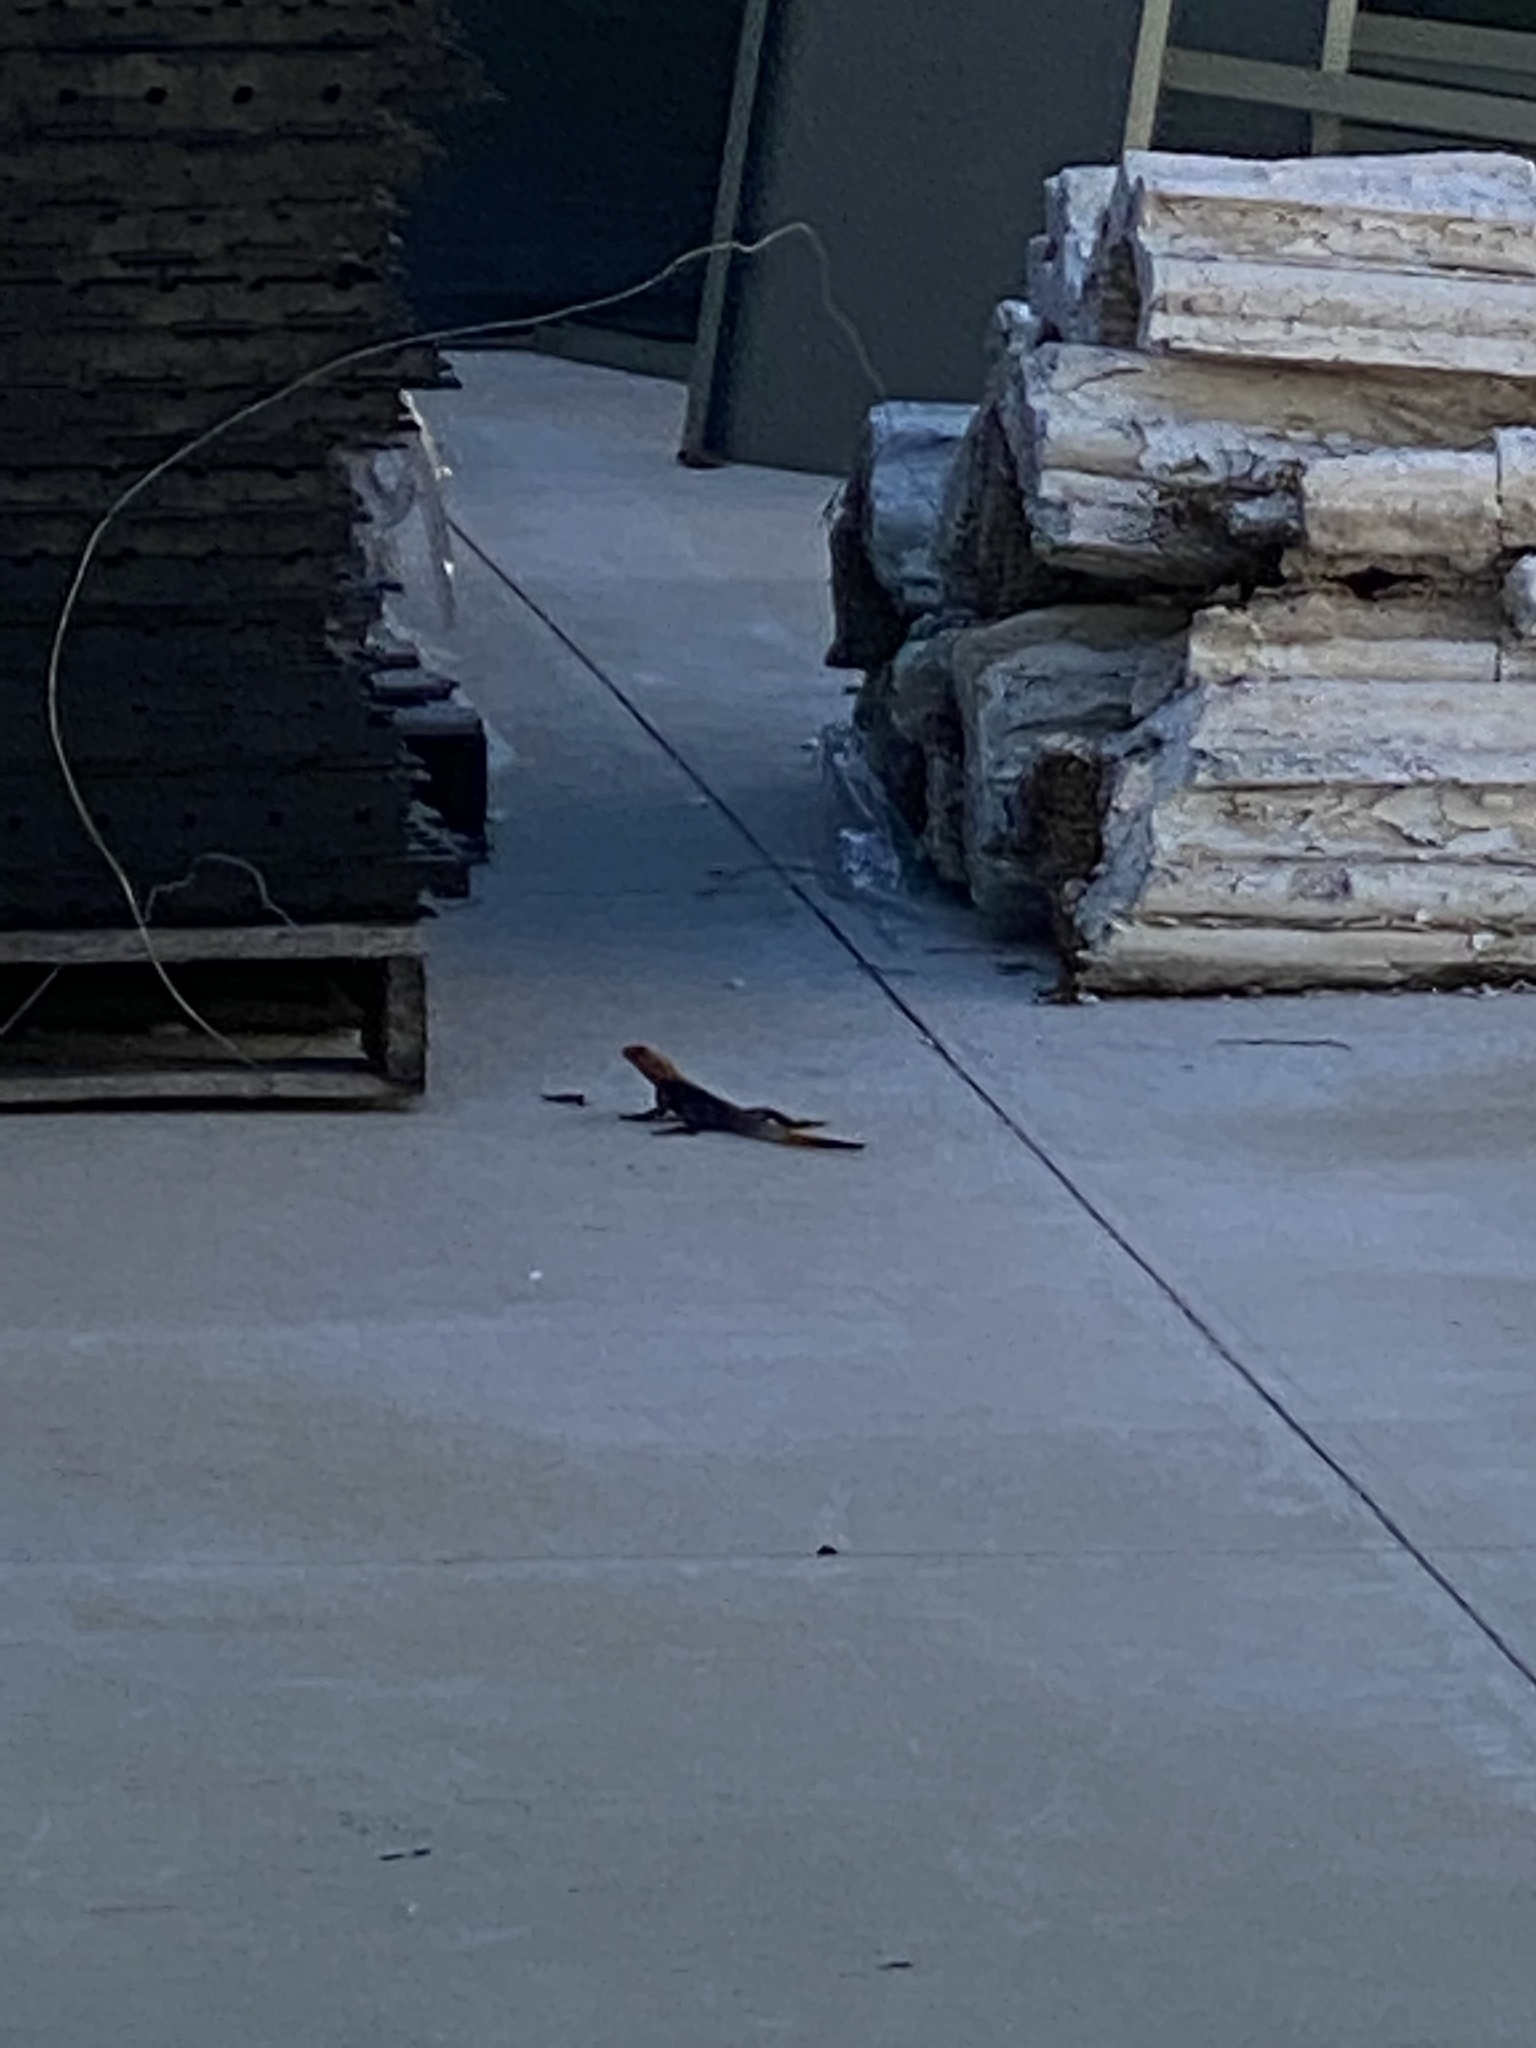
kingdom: Animalia
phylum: Chordata
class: Squamata
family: Agamidae
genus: Agama
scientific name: Agama picticauda
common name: Red-headed agama
